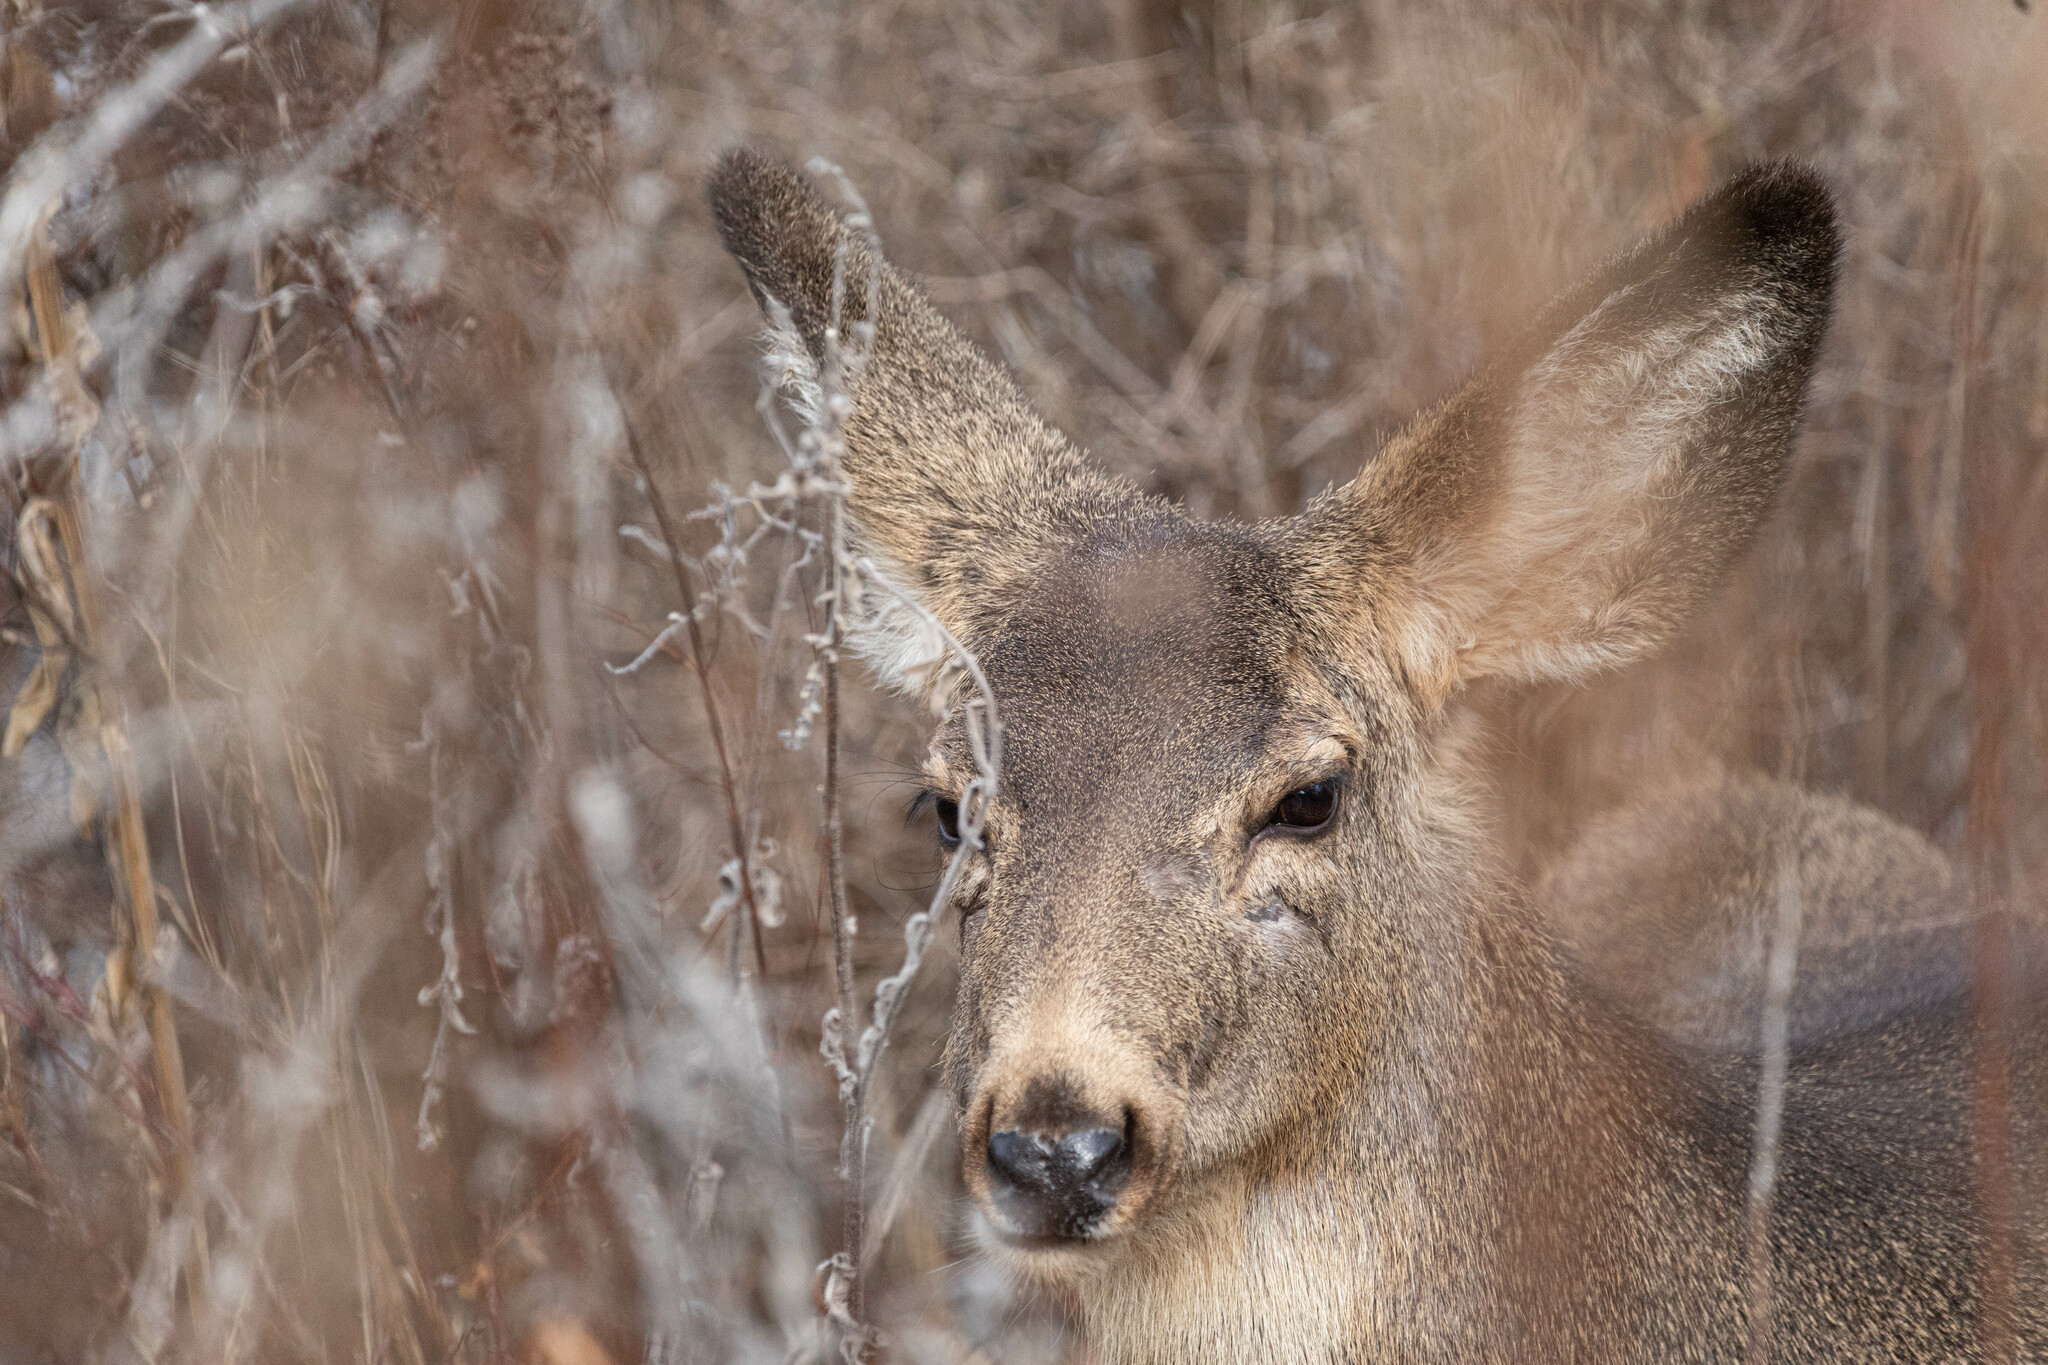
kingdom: Animalia
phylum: Chordata
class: Mammalia
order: Artiodactyla
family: Cervidae
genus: Odocoileus
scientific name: Odocoileus hemionus
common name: Mule deer
